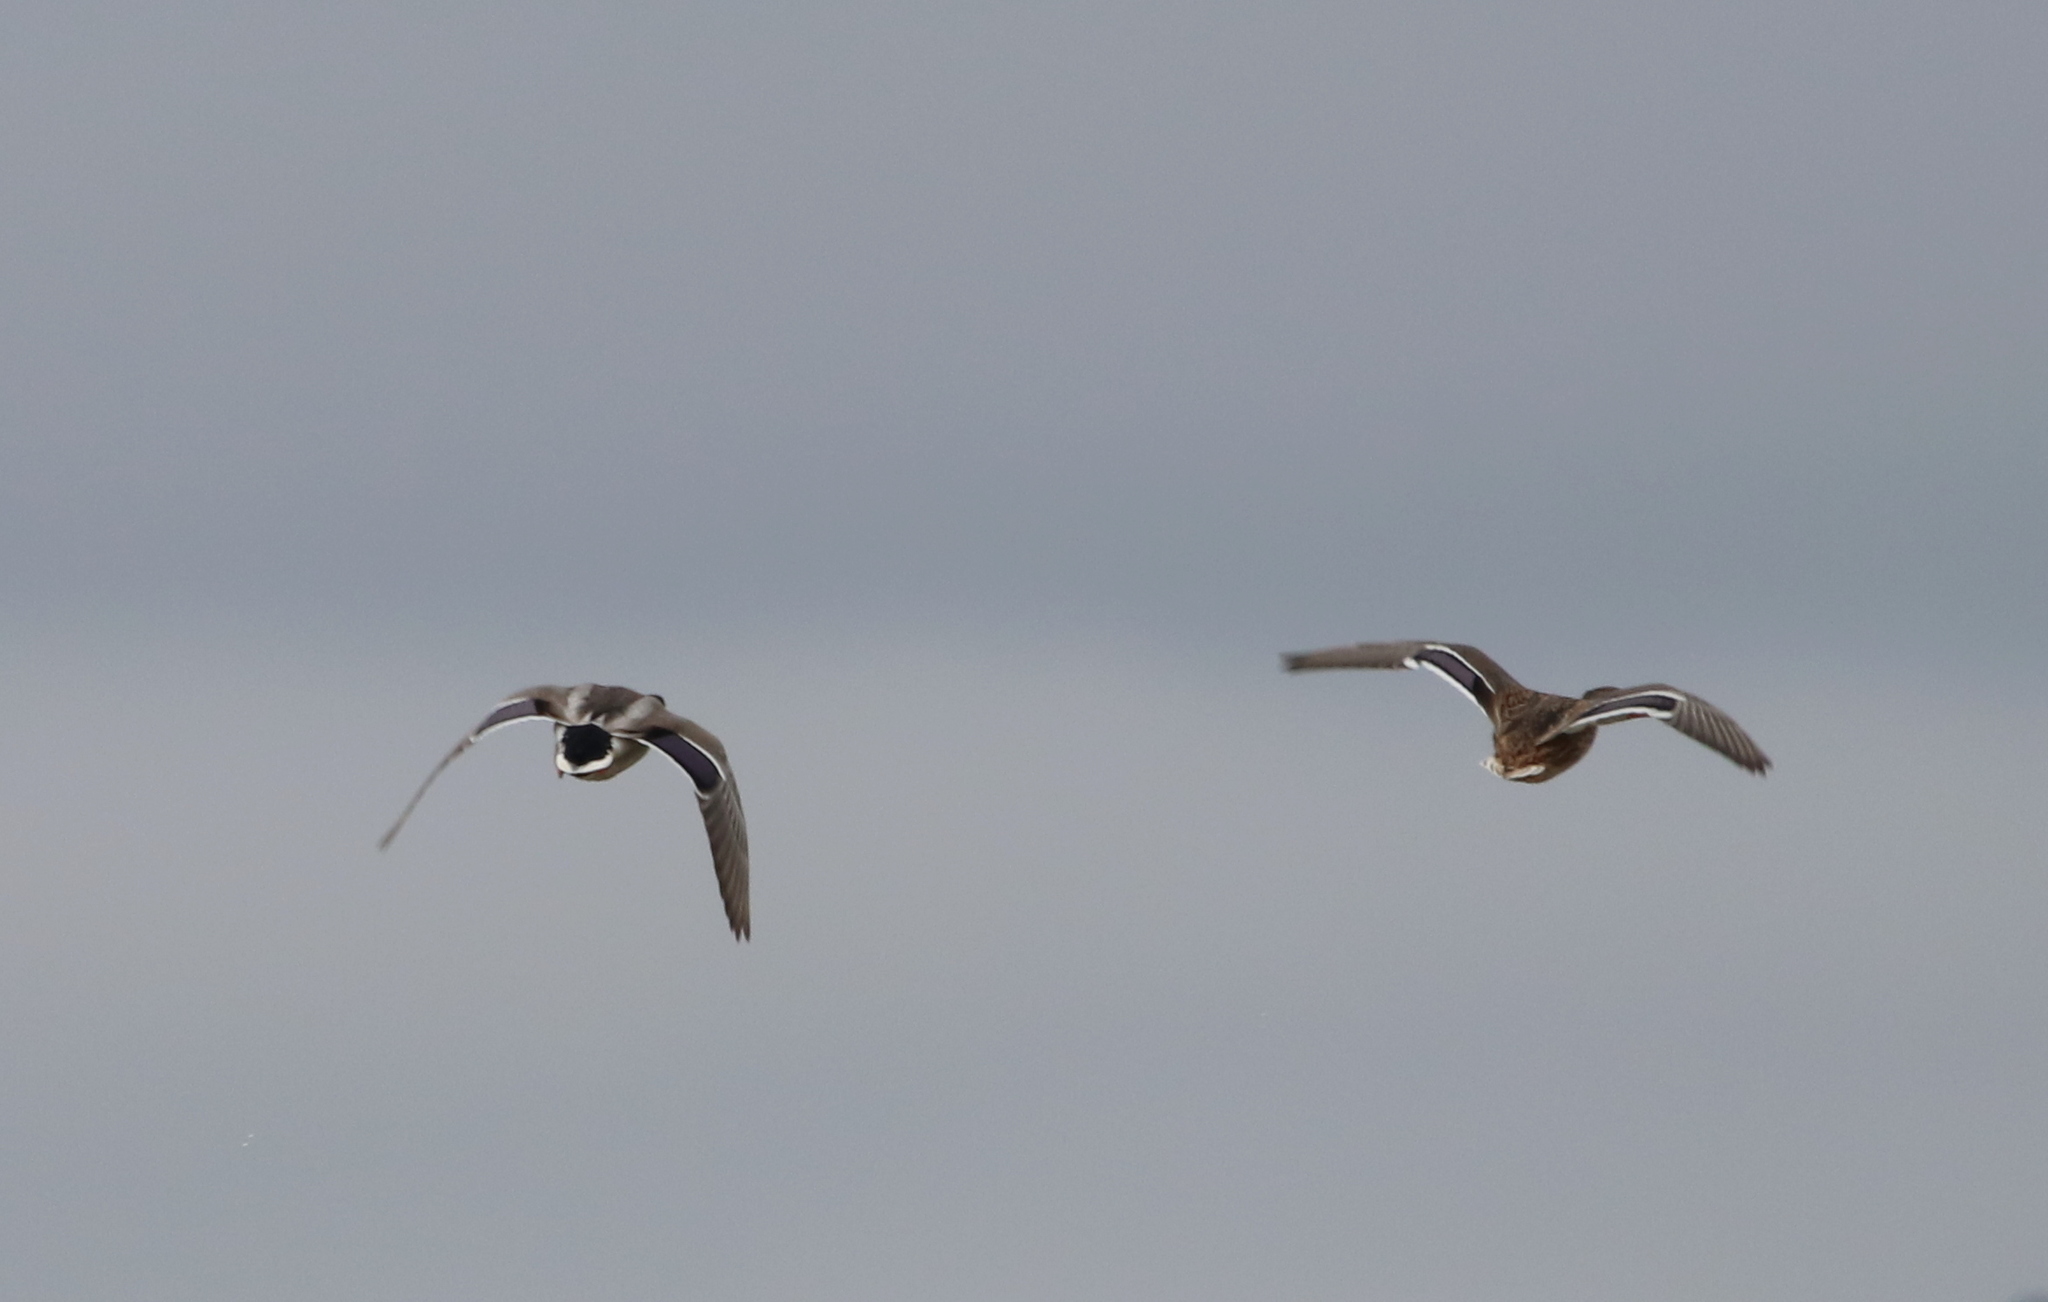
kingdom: Animalia
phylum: Chordata
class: Aves
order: Anseriformes
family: Anatidae
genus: Anas
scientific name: Anas platyrhynchos
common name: Mallard
